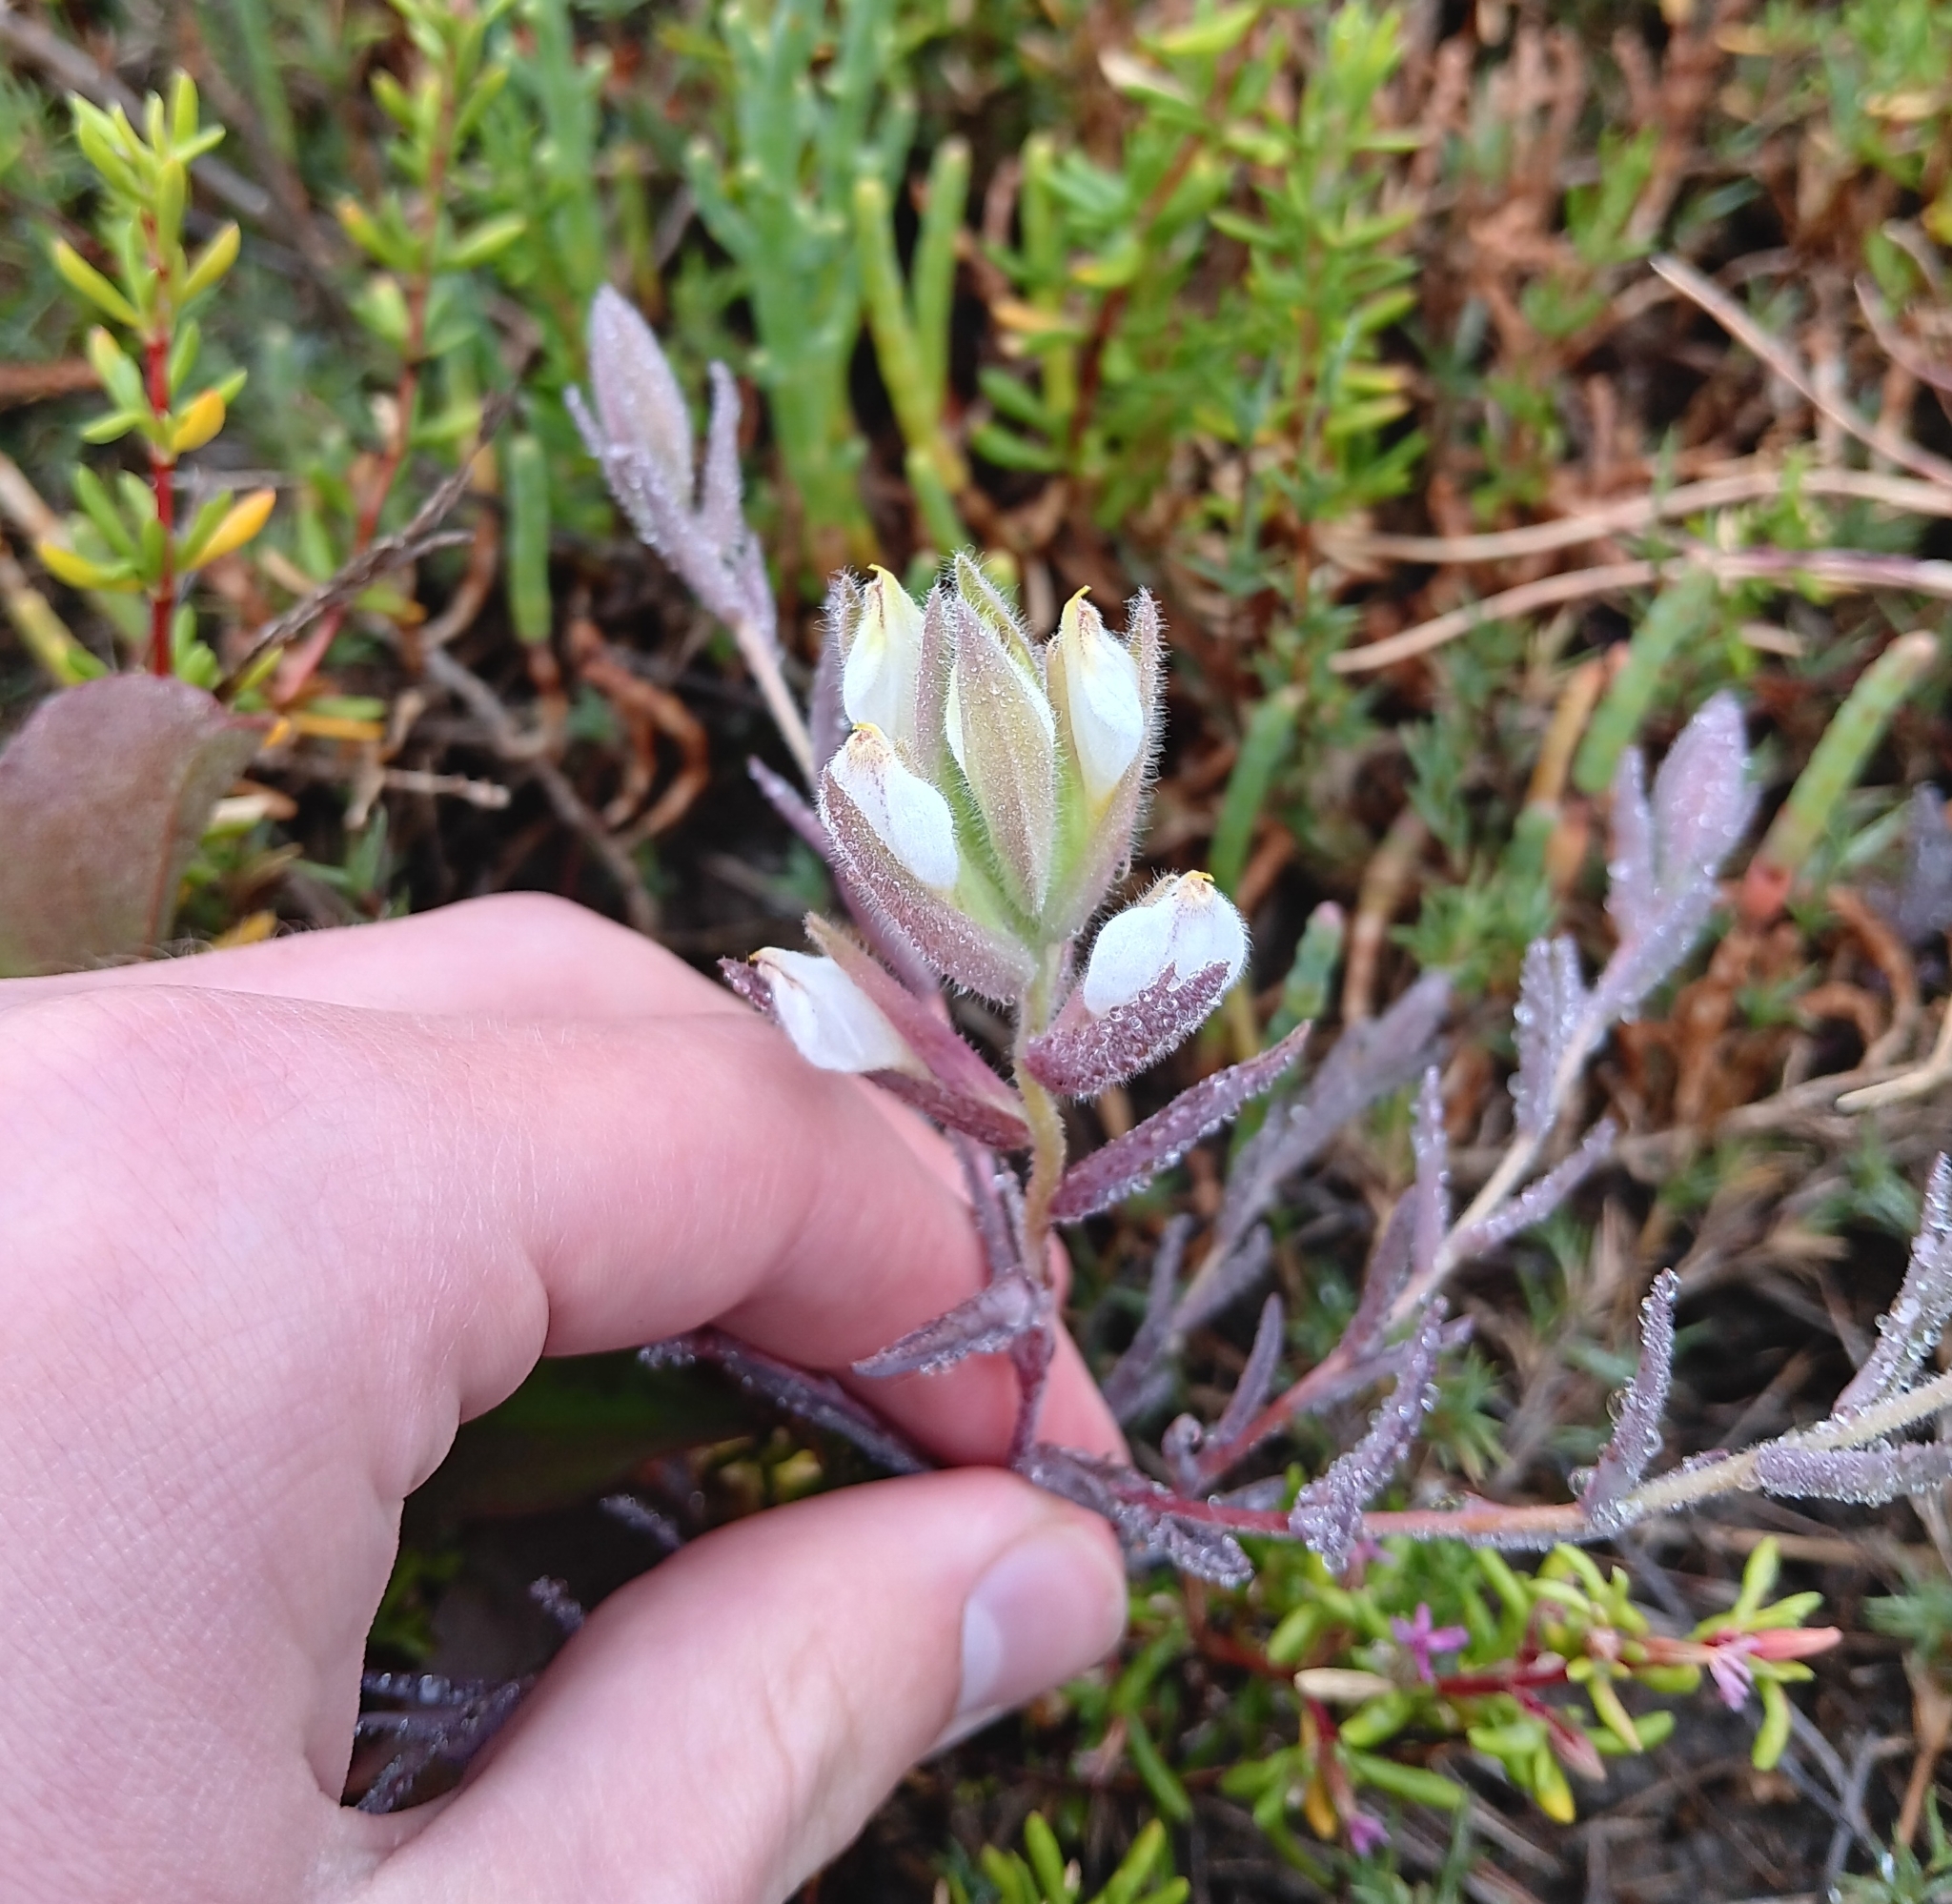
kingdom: Plantae
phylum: Tracheophyta
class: Magnoliopsida
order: Lamiales
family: Orobanchaceae
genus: Chloropyron
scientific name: Chloropyron maritimum
